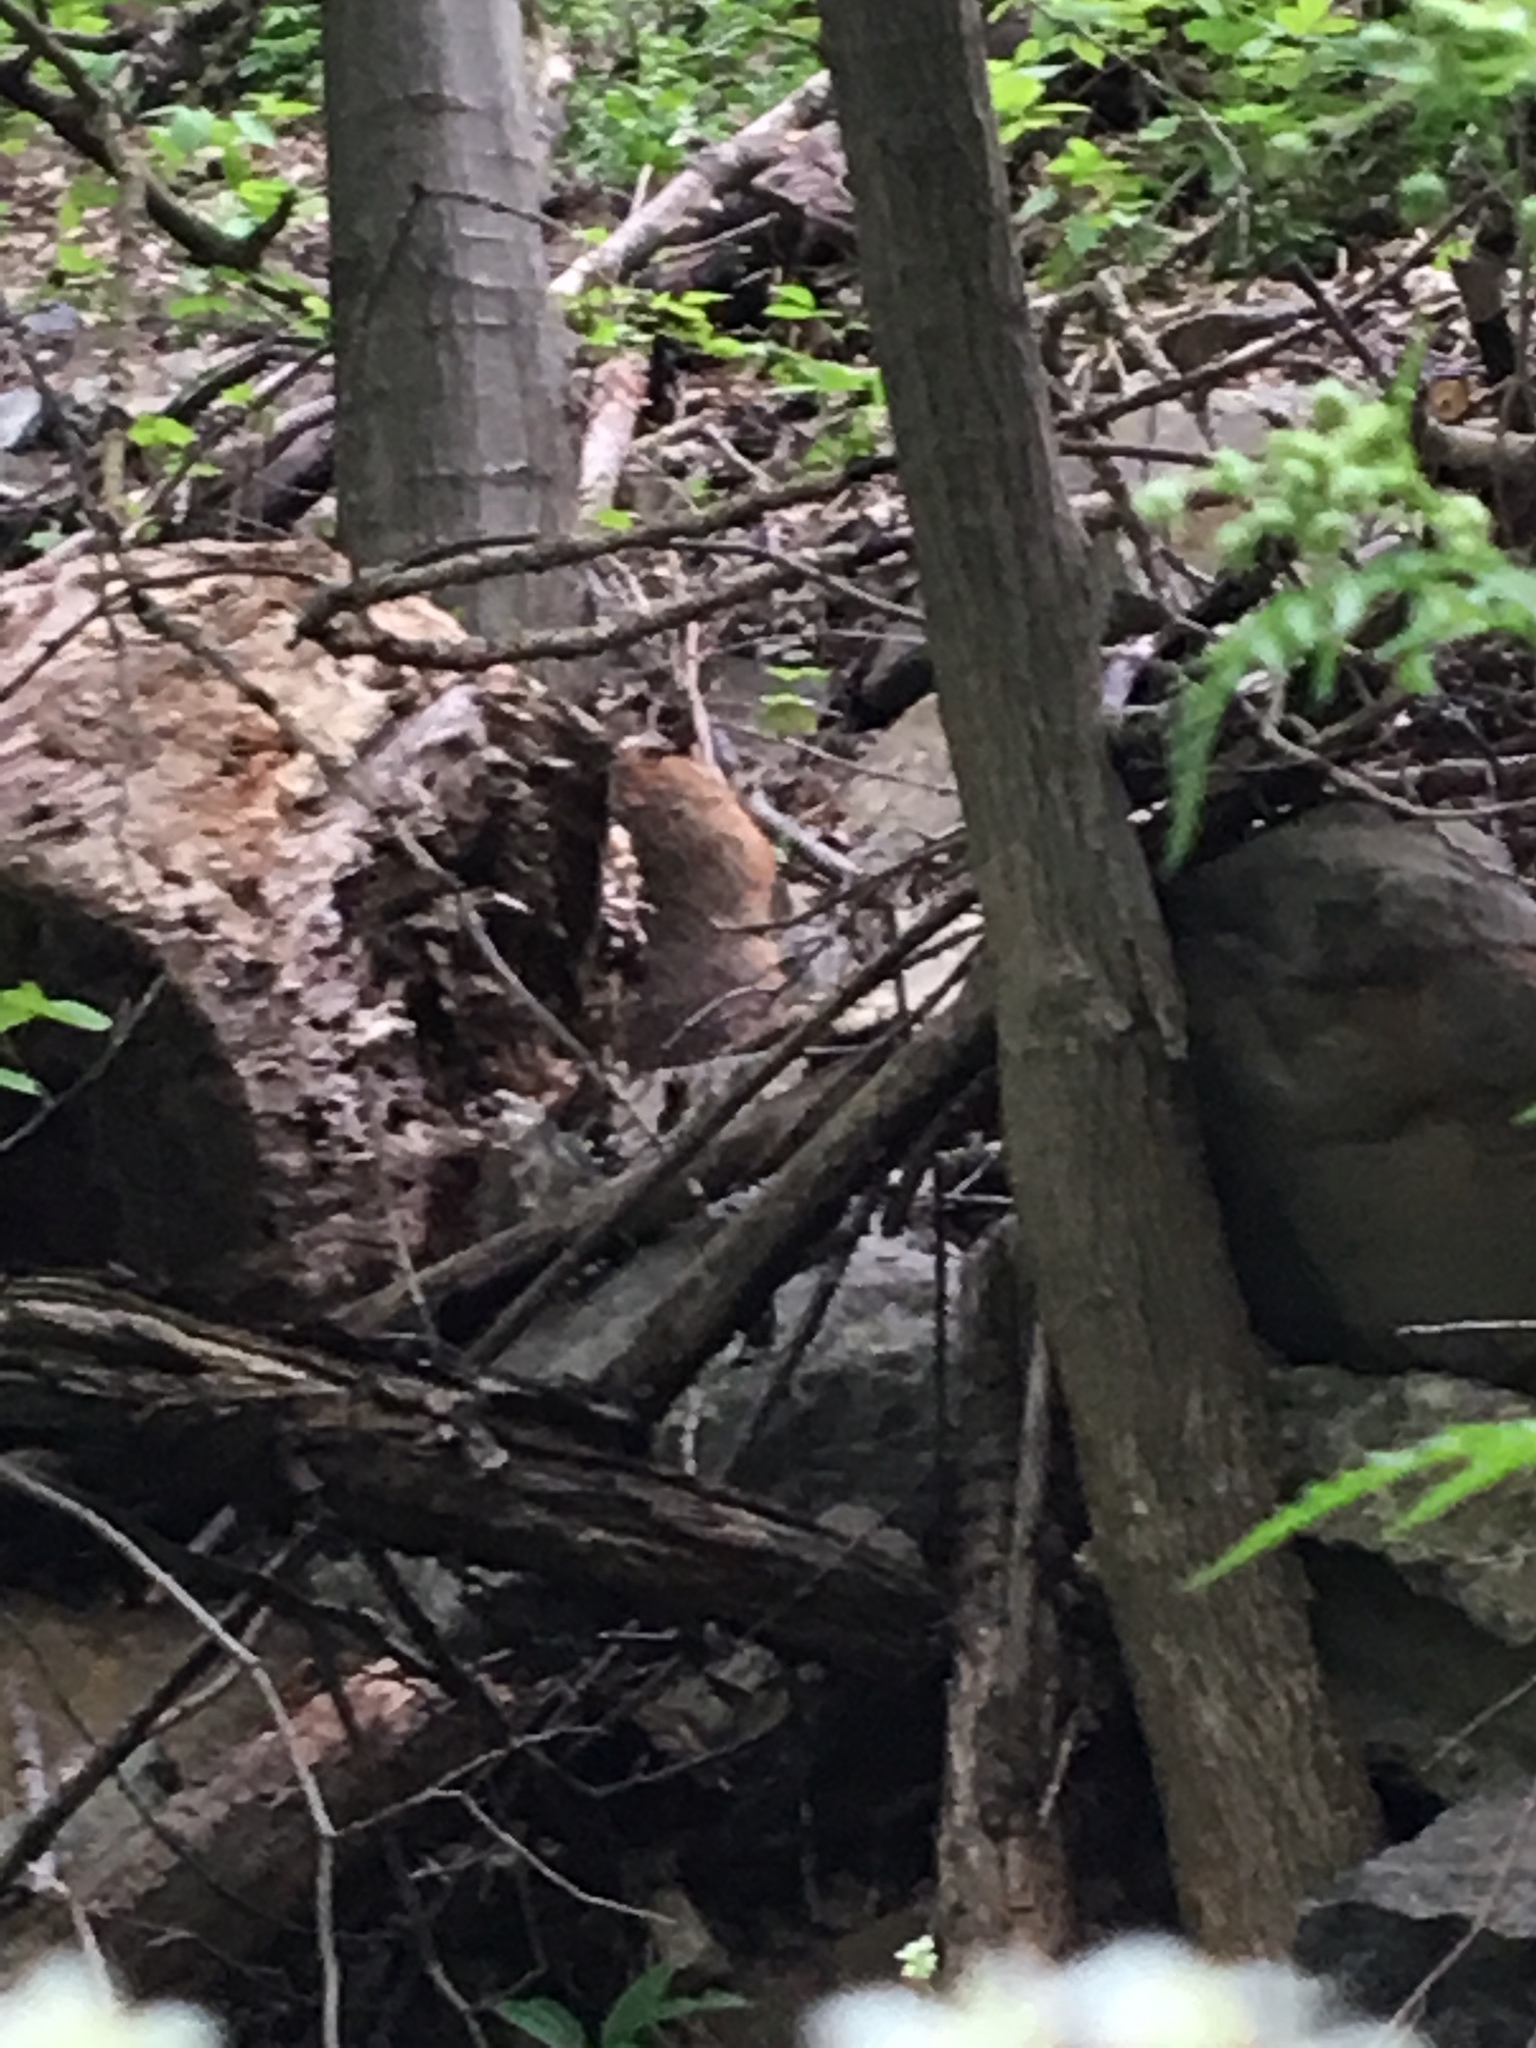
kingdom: Animalia
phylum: Chordata
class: Mammalia
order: Rodentia
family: Sciuridae
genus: Marmota
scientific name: Marmota monax
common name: Groundhog
